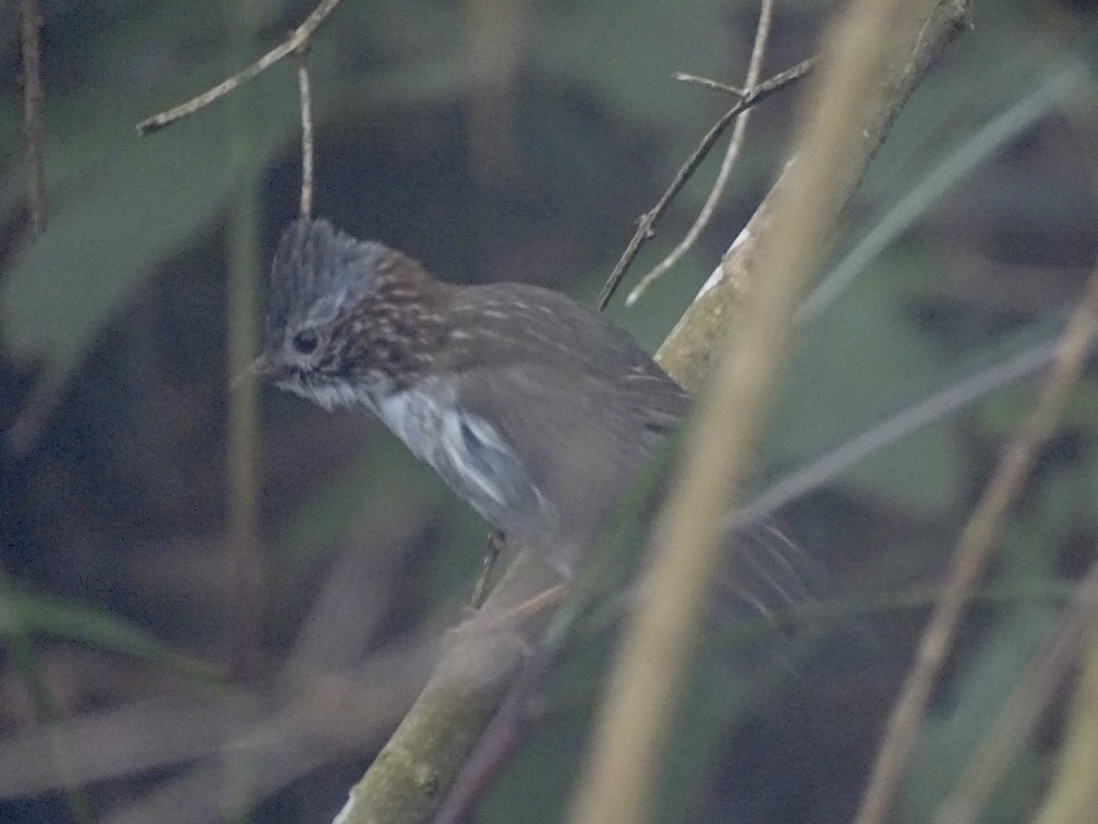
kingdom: Animalia
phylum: Chordata
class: Aves
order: Passeriformes
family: Zosteropidae
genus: Yuhina
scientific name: Yuhina torqueola
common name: Indochinese yuhina
